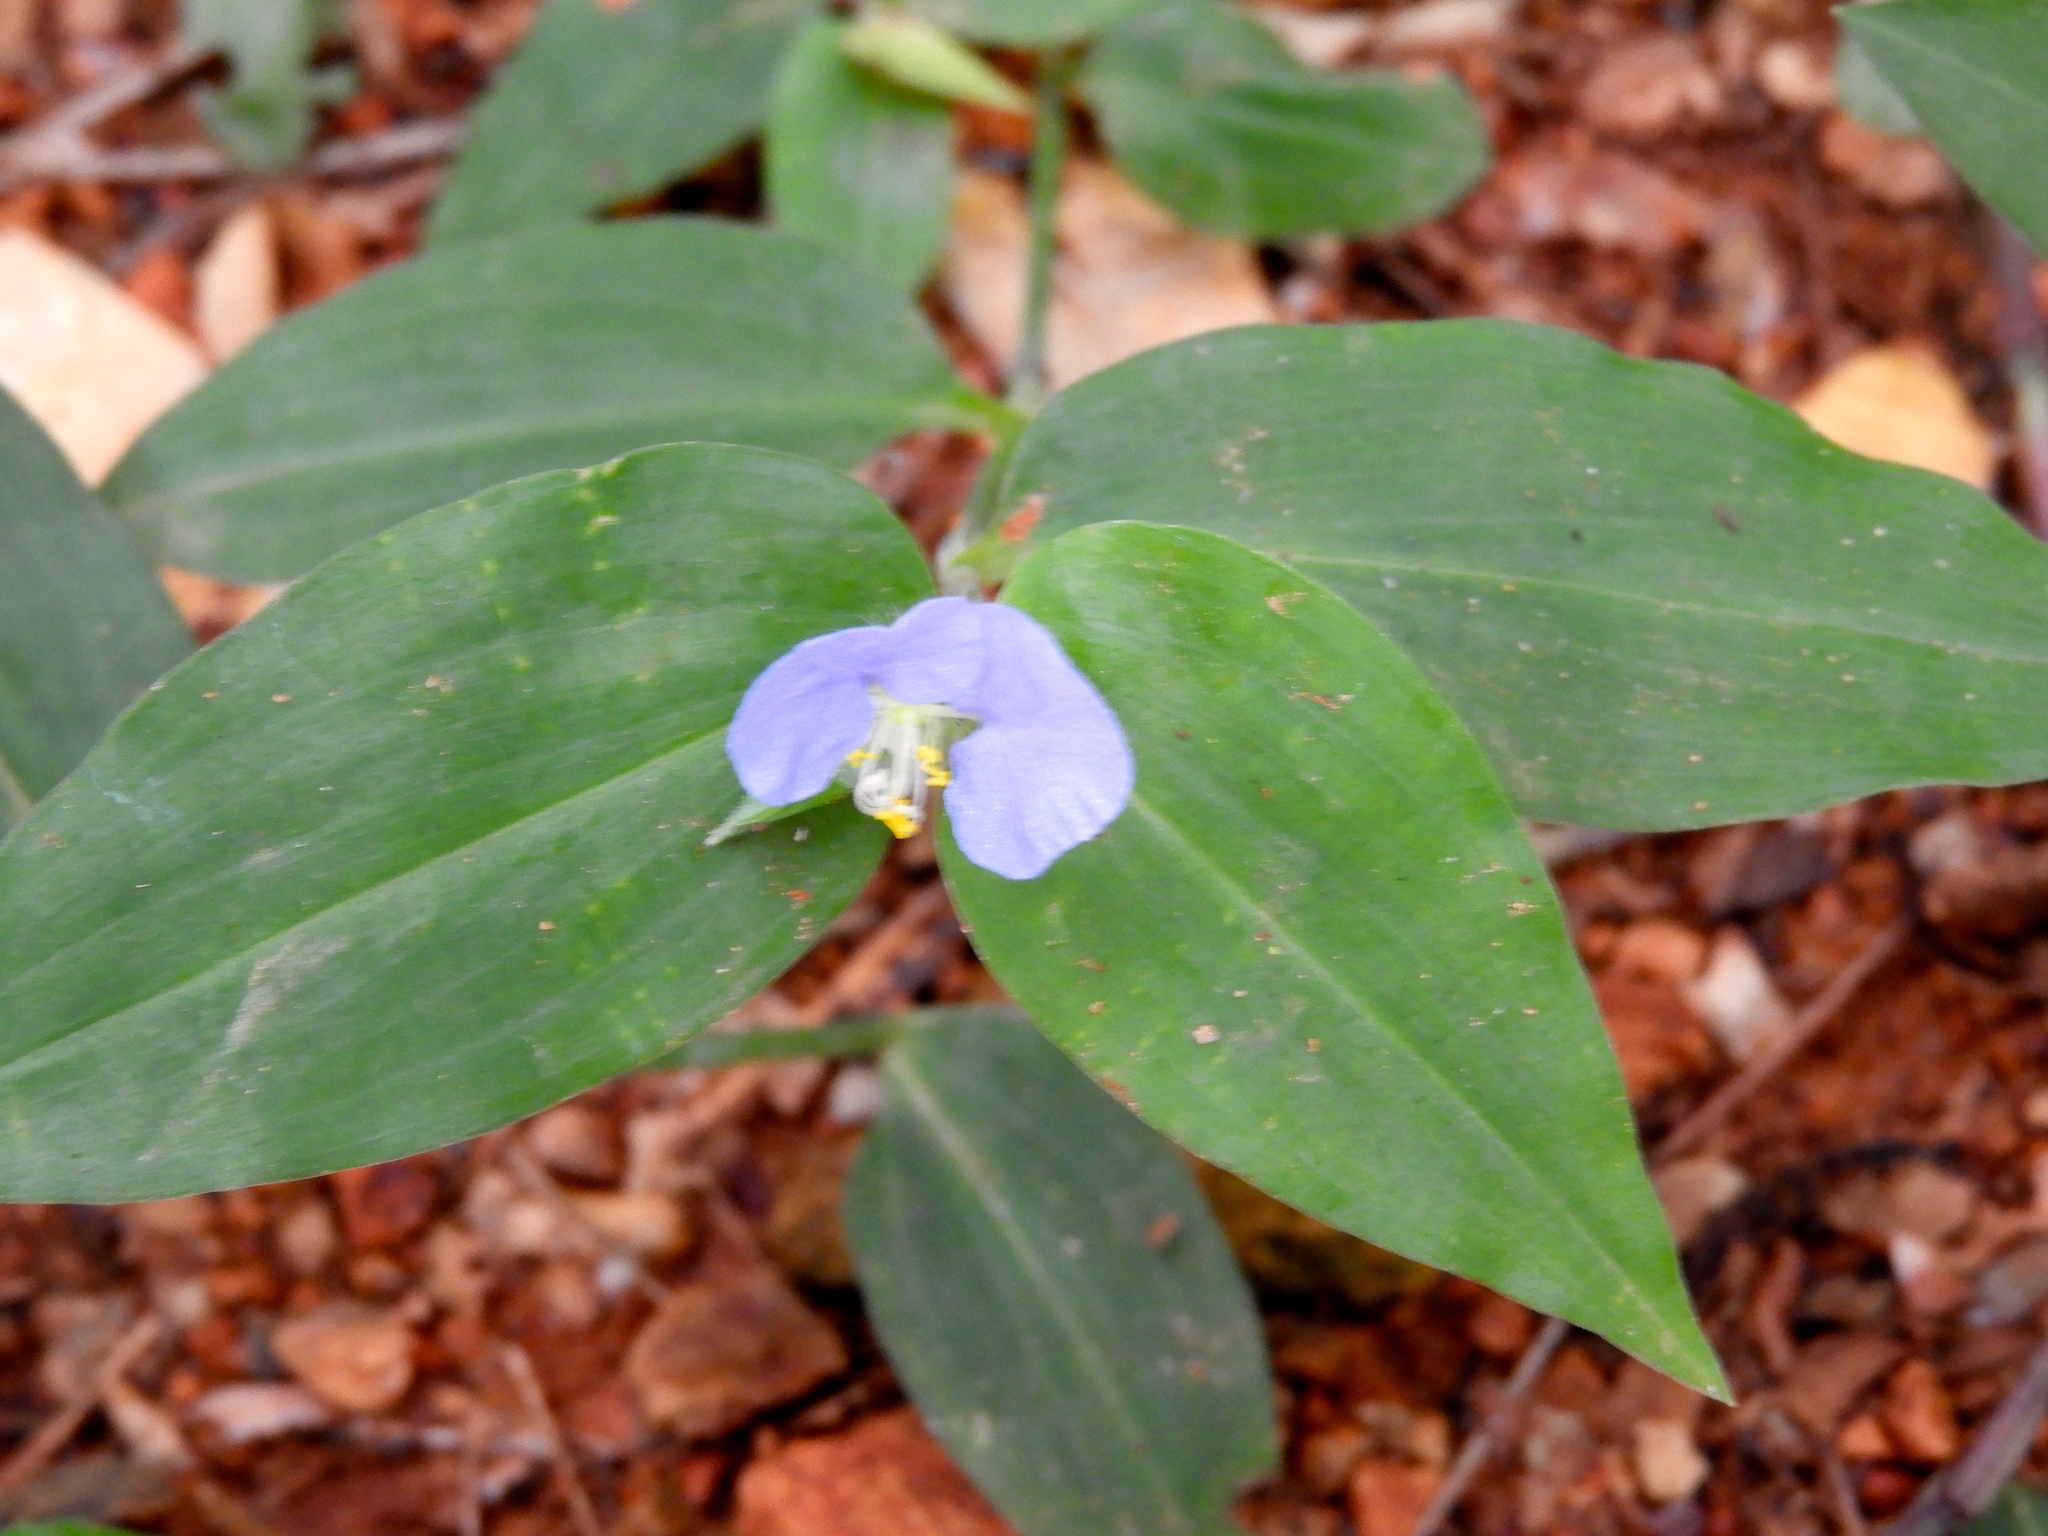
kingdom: Plantae
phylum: Tracheophyta
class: Liliopsida
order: Commelinales
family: Commelinaceae
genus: Commelina
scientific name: Commelina erecta
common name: Blousel blommetjie
